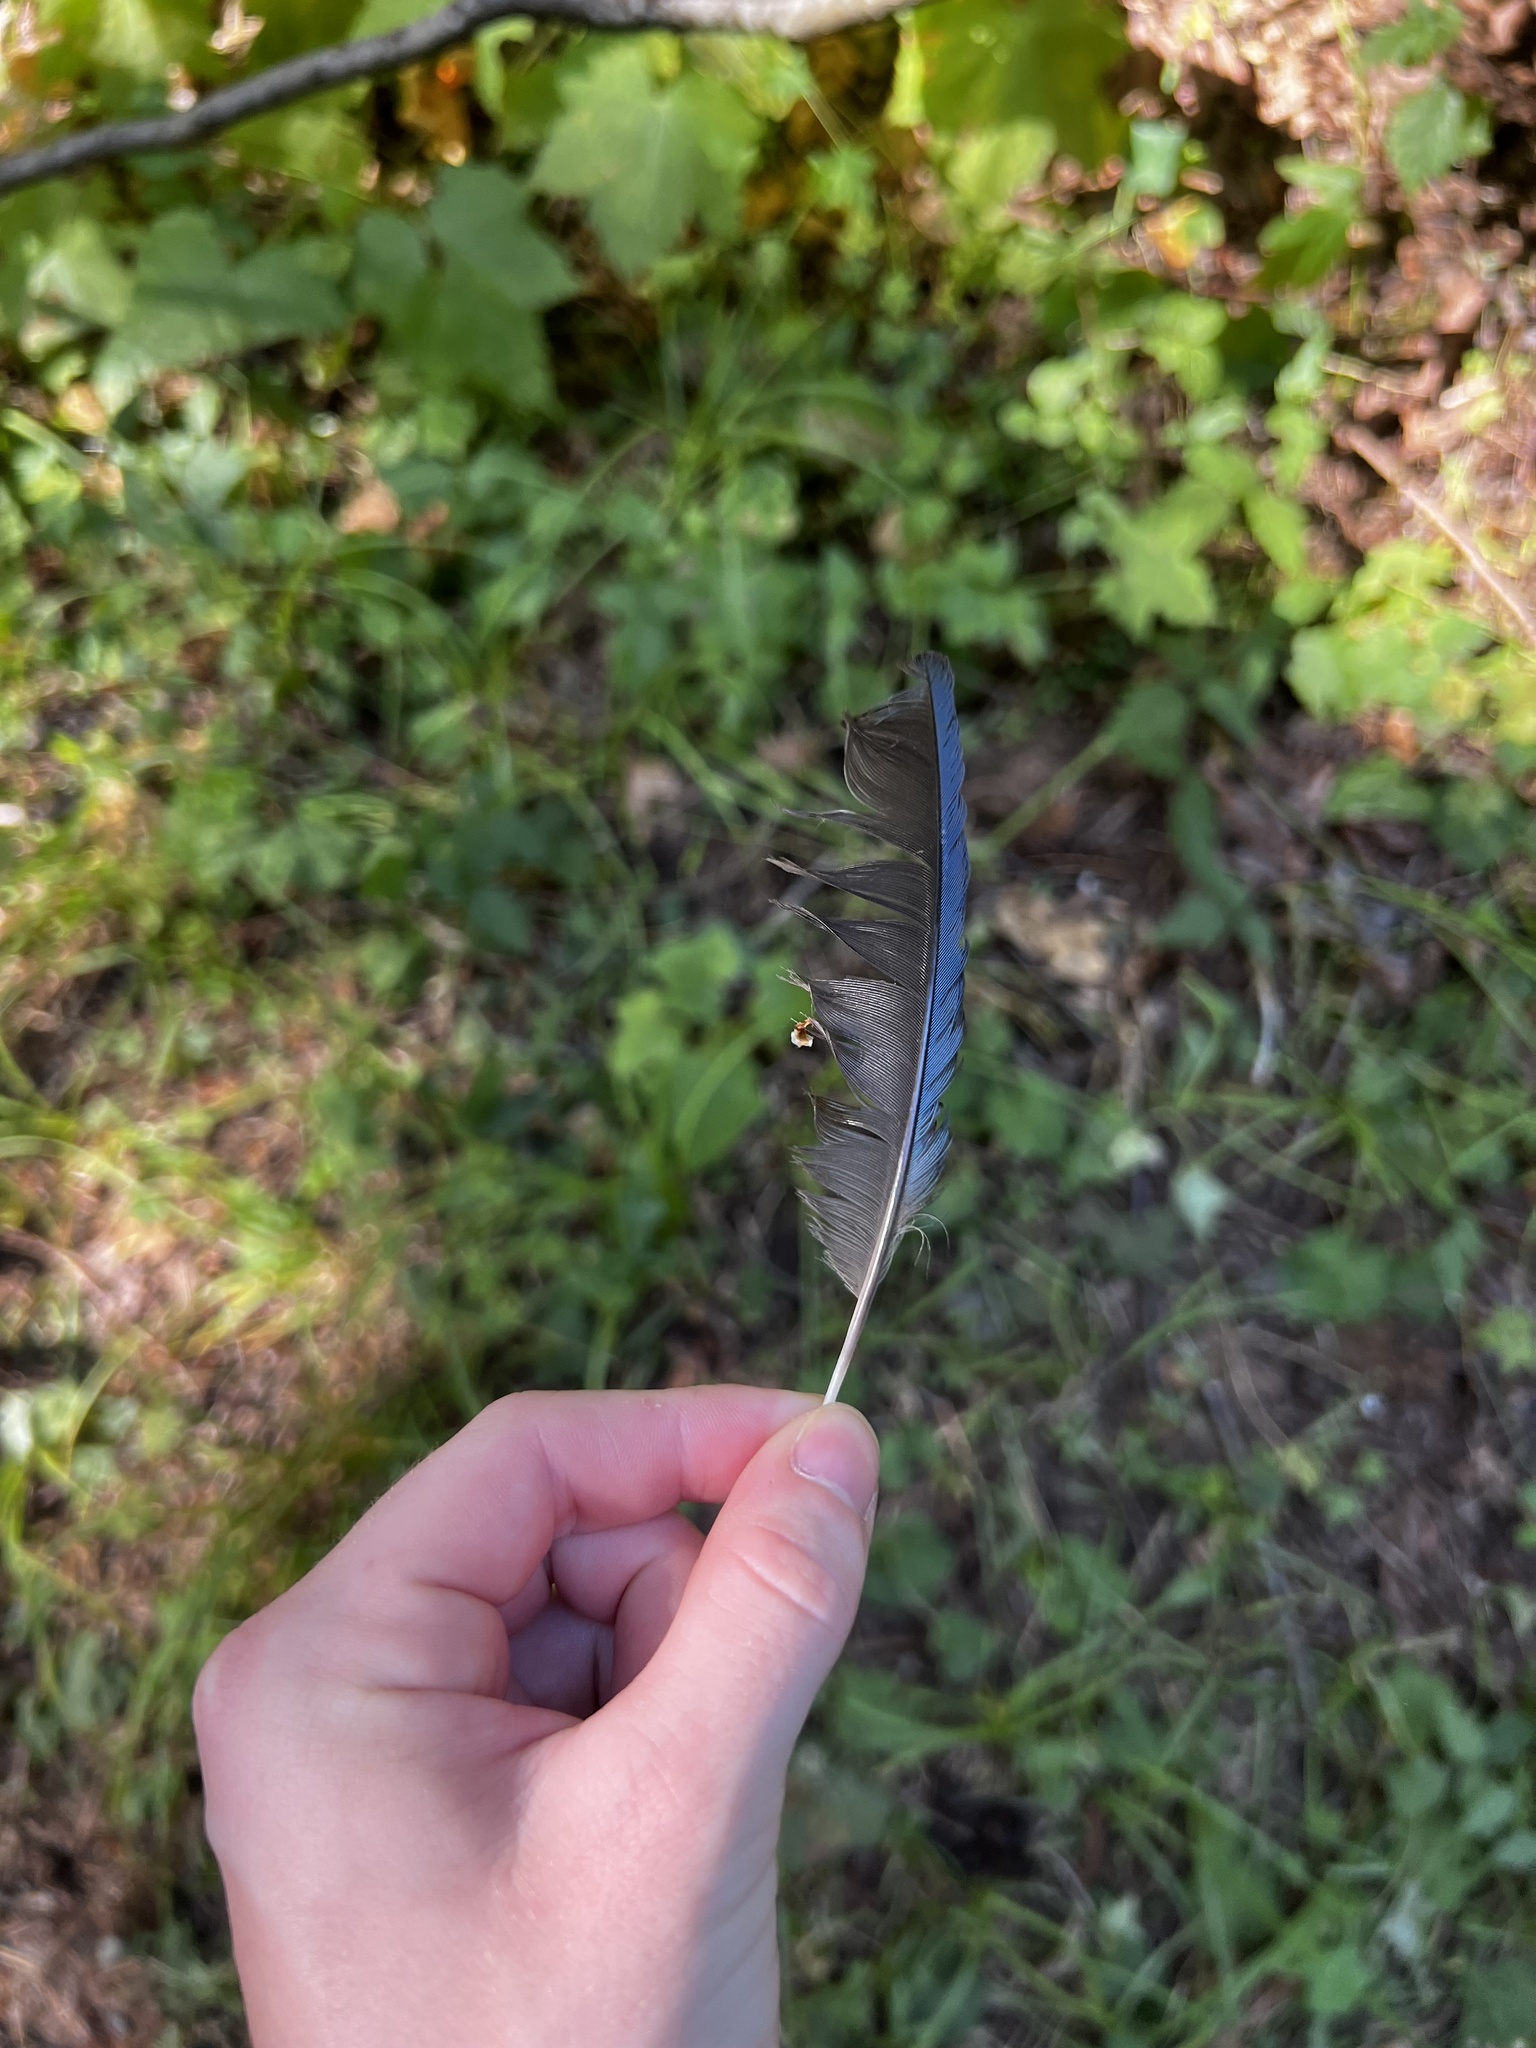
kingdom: Animalia
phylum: Chordata
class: Aves
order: Passeriformes
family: Corvidae
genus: Cyanocitta
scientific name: Cyanocitta stelleri
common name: Steller's jay
